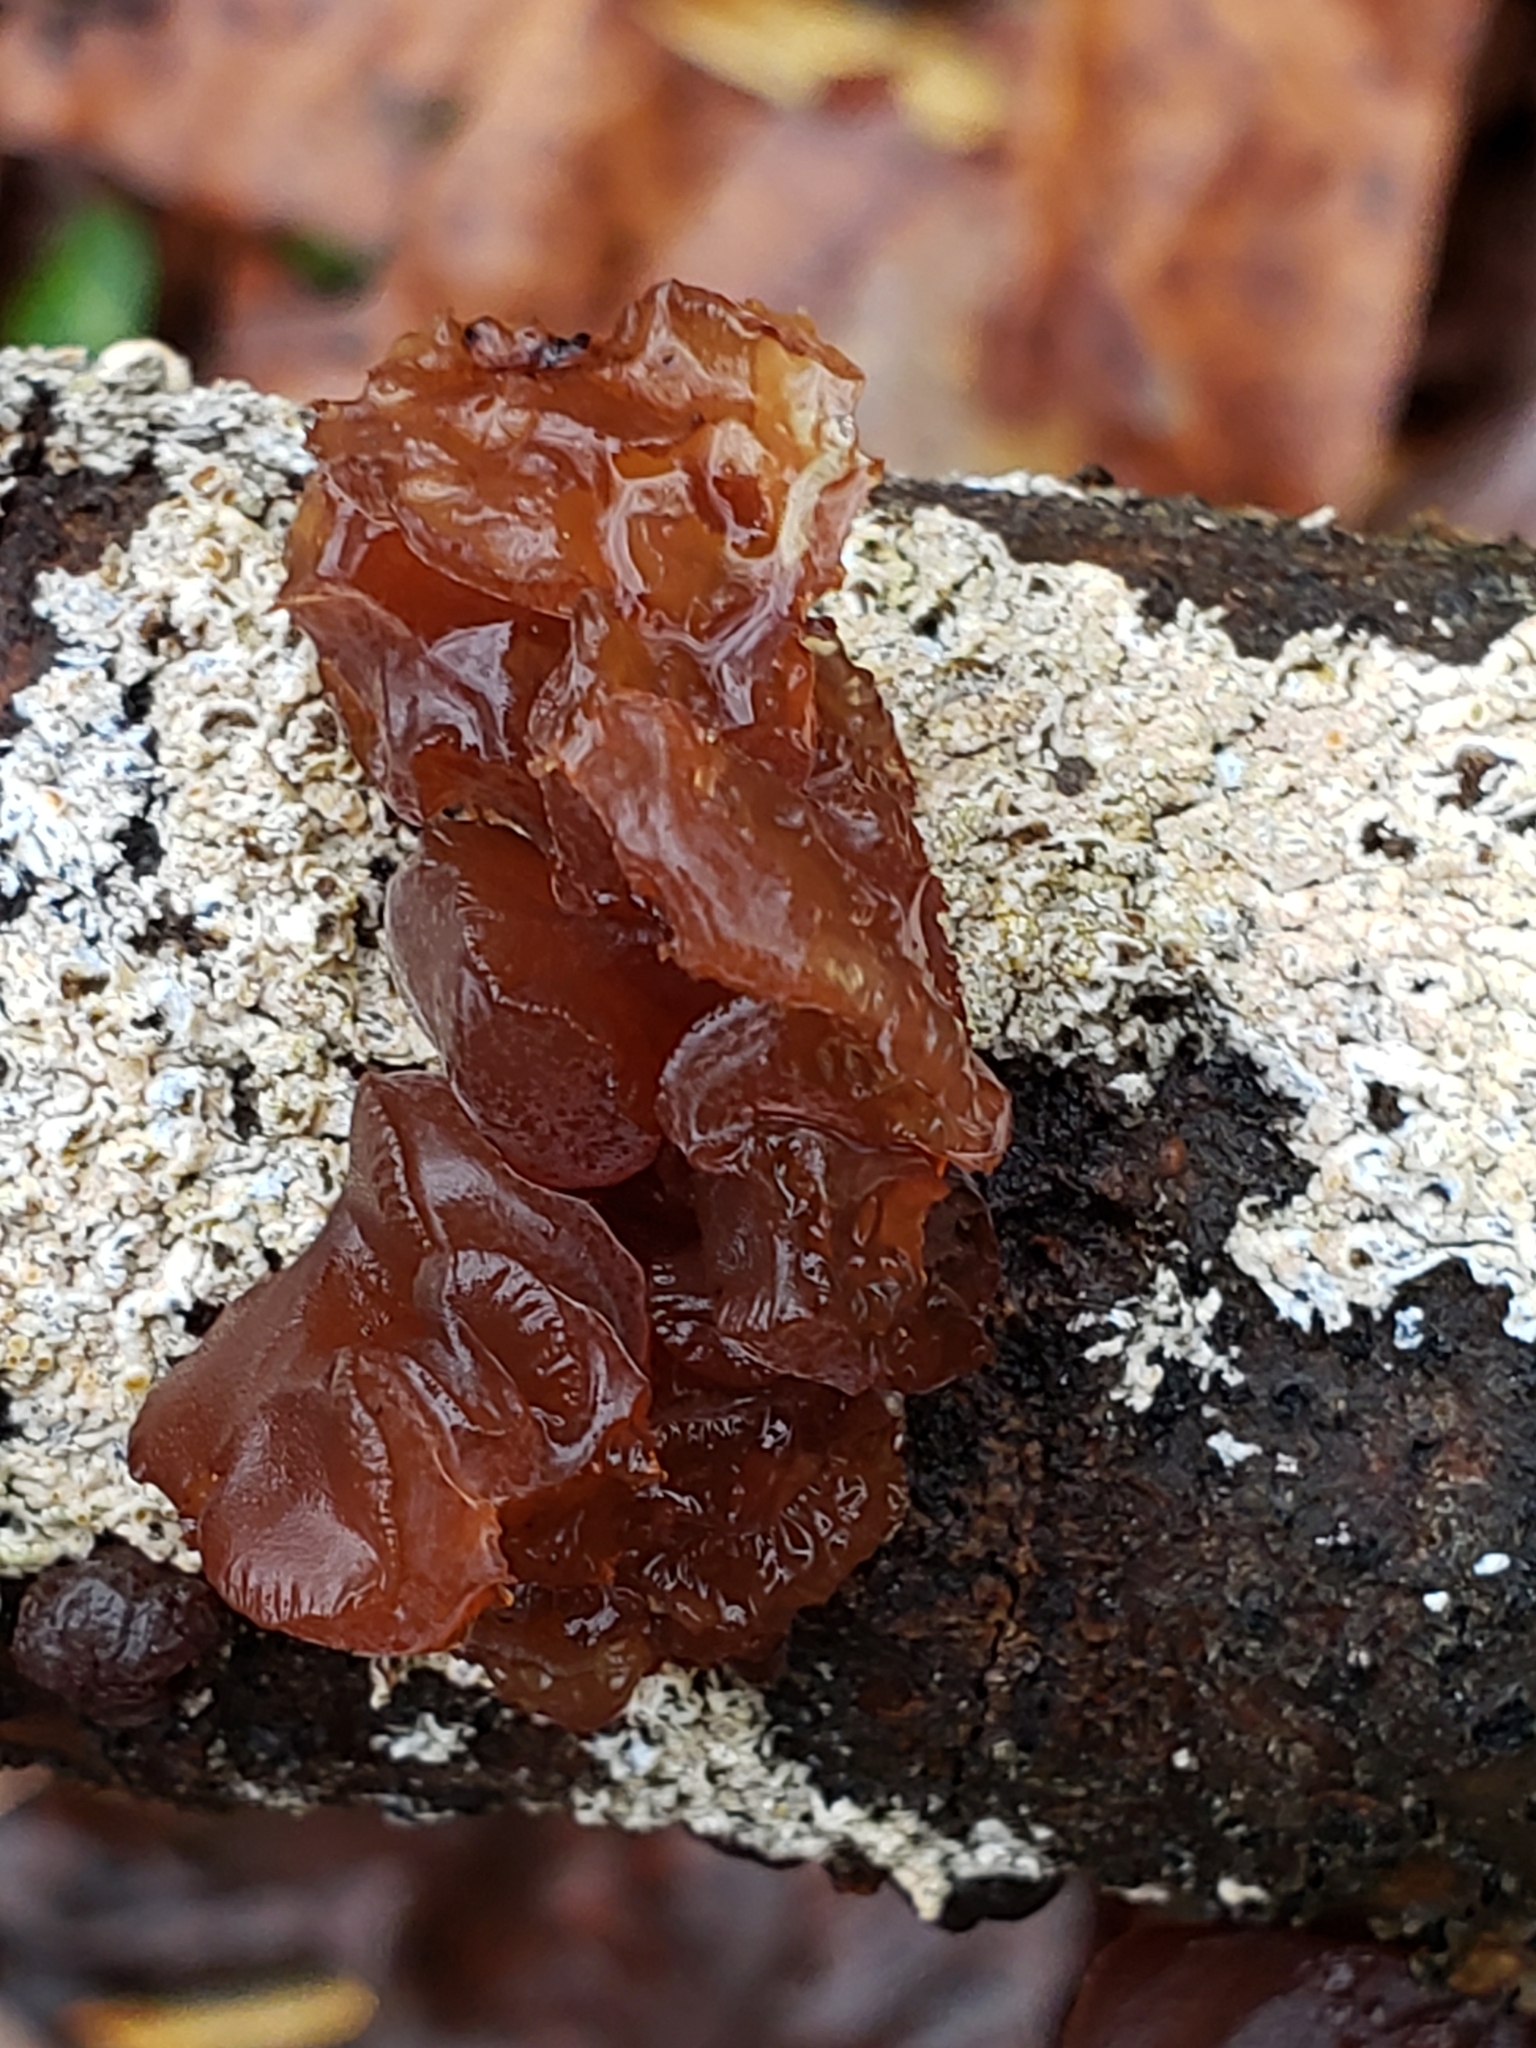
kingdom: Fungi
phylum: Basidiomycota
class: Agaricomycetes
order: Auriculariales
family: Auriculariaceae
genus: Exidia
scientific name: Exidia
